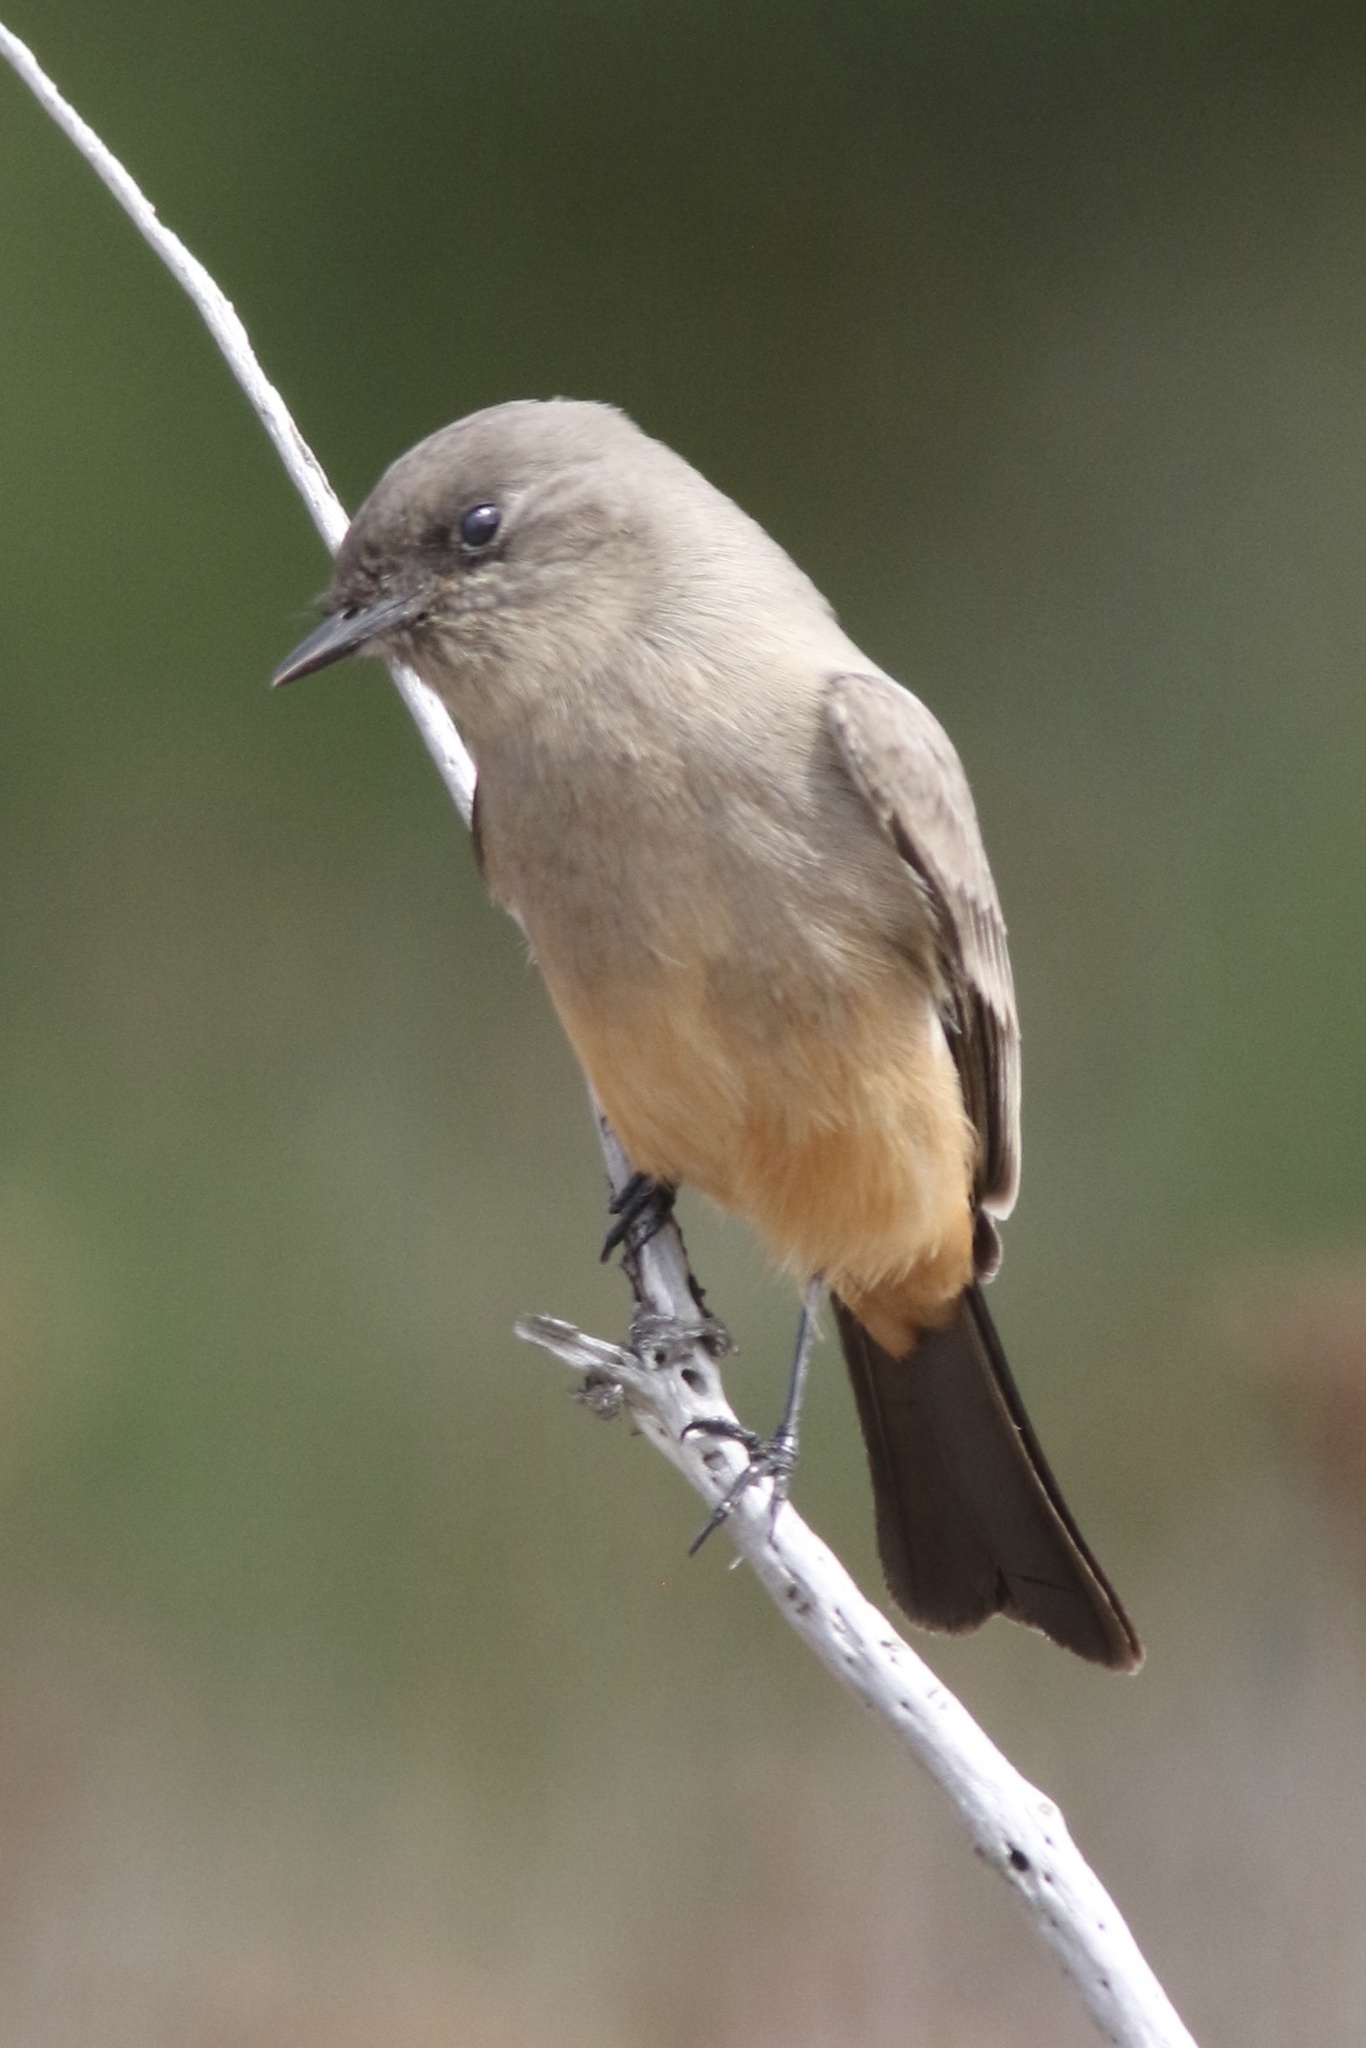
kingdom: Animalia
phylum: Chordata
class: Aves
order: Passeriformes
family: Tyrannidae
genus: Sayornis
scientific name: Sayornis saya
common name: Say's phoebe
